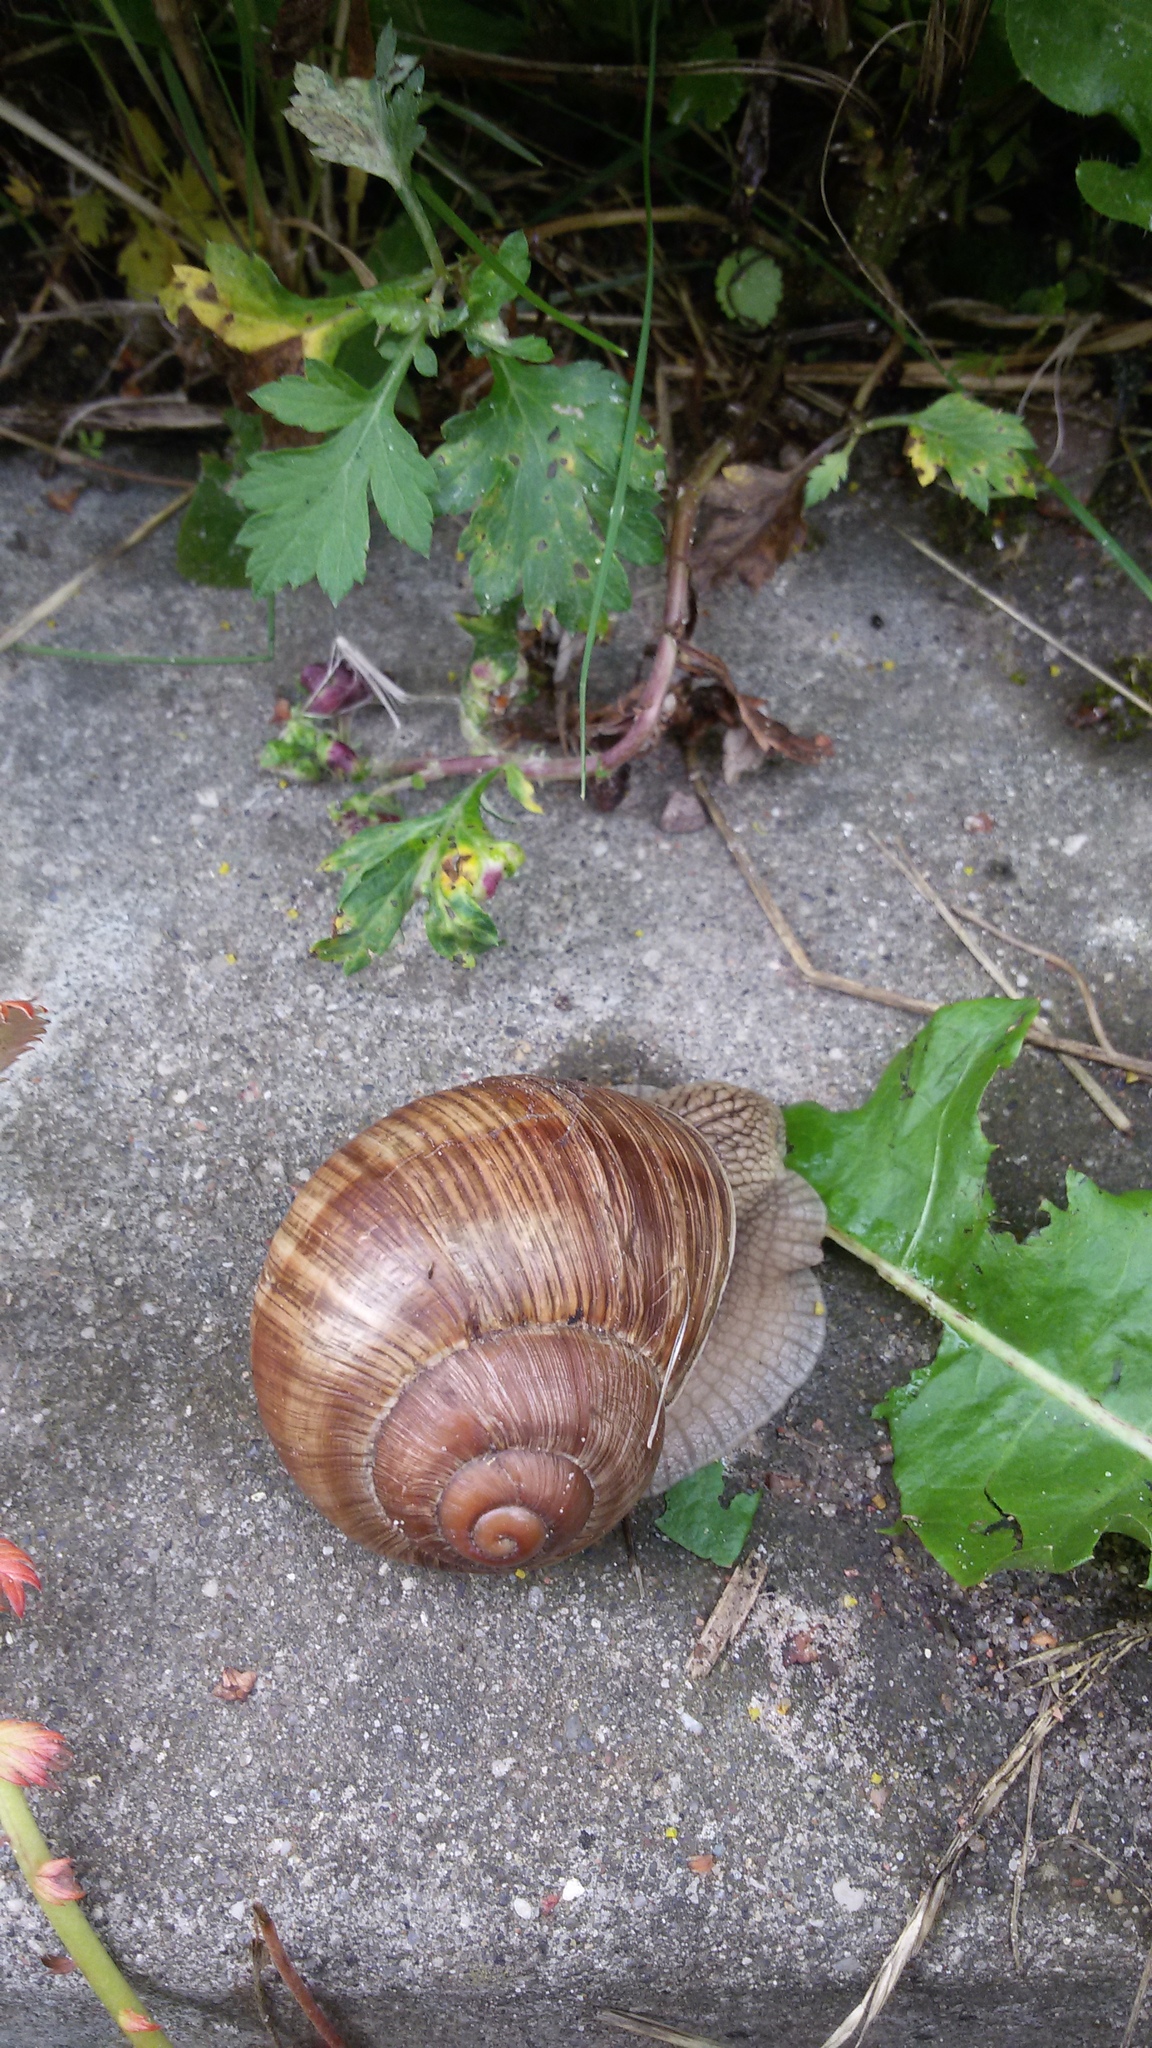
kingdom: Animalia
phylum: Mollusca
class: Gastropoda
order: Stylommatophora
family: Helicidae
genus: Helix
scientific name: Helix pomatia
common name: Roman snail
